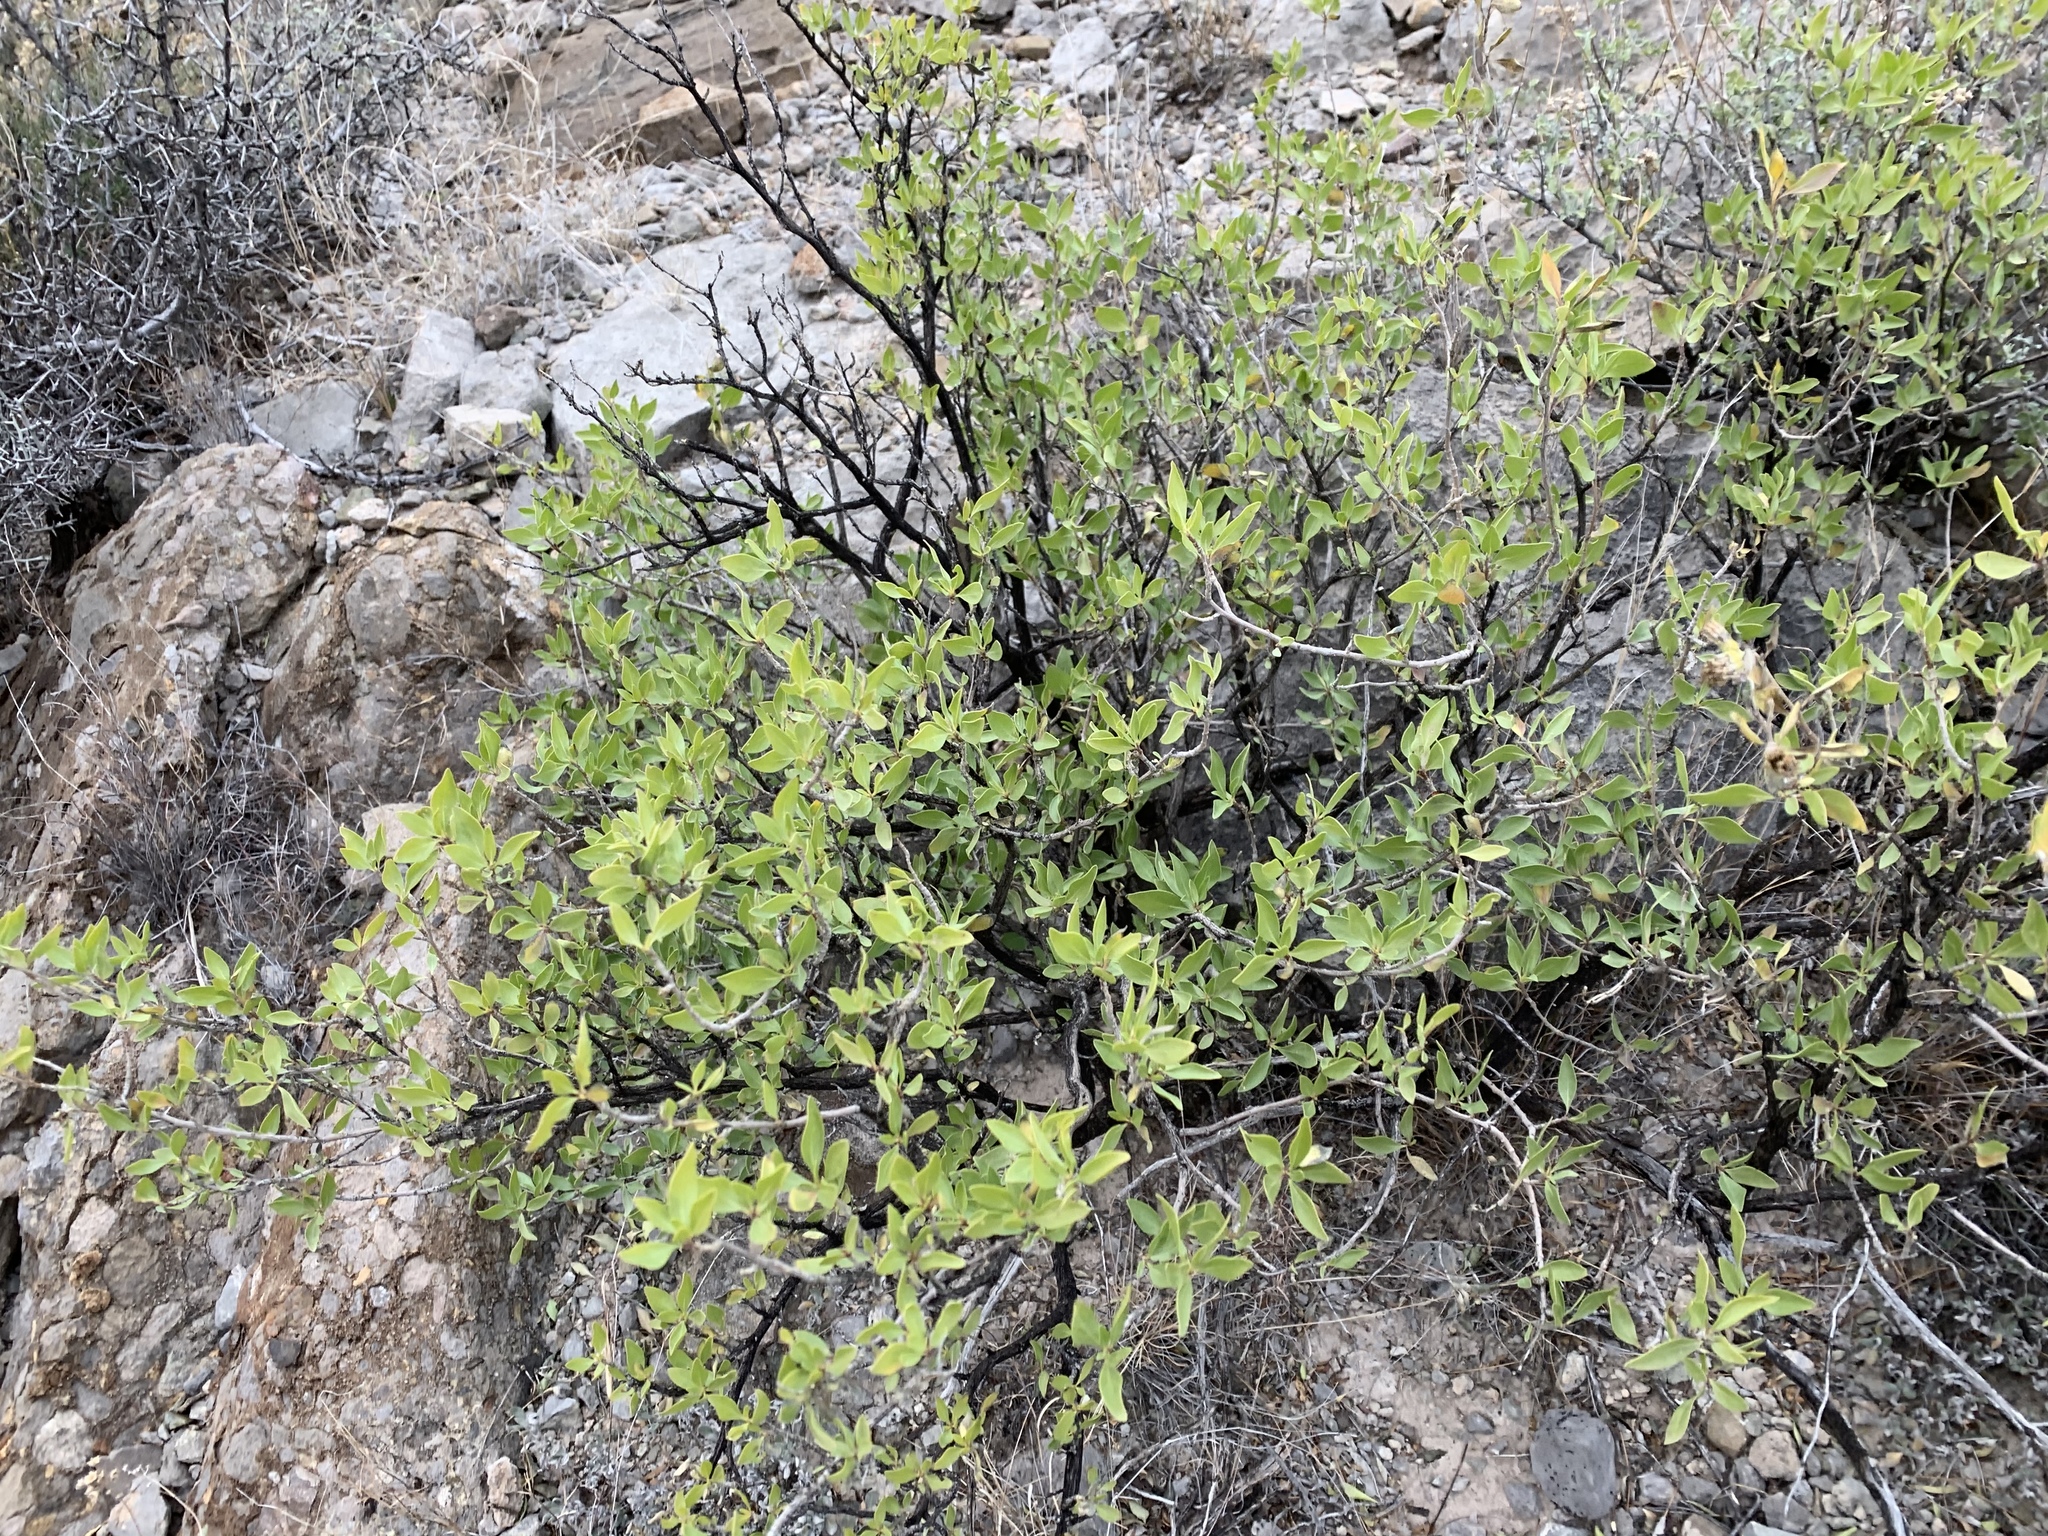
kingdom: Plantae
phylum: Tracheophyta
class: Magnoliopsida
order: Asterales
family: Asteraceae
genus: Flourensia
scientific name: Flourensia cernua
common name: Varnishbush
